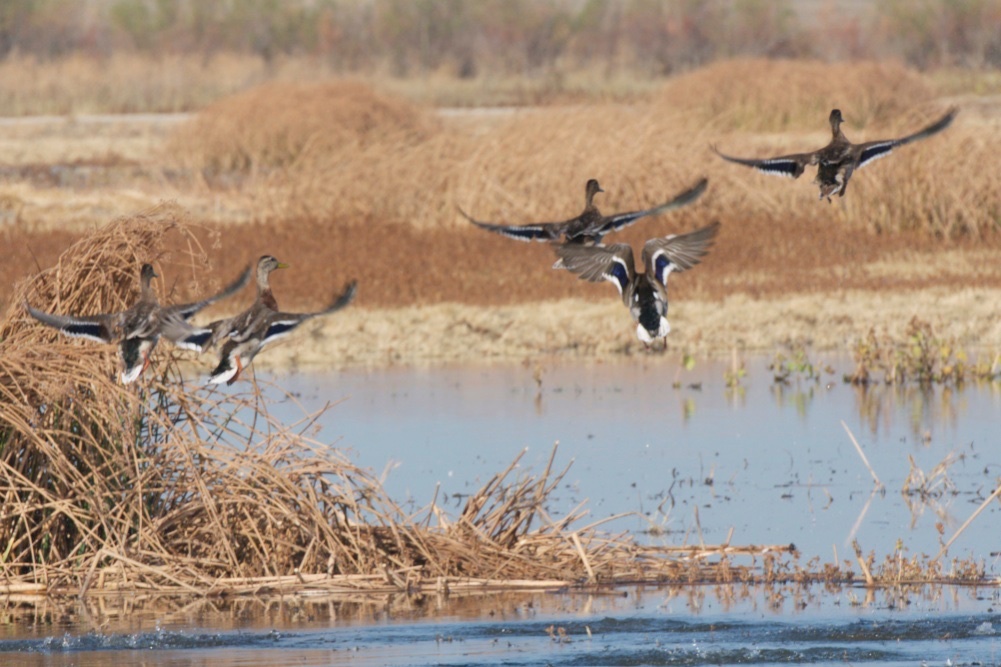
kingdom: Animalia
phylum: Chordata
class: Aves
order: Anseriformes
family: Anatidae
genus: Anas
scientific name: Anas platyrhynchos
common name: Mallard
